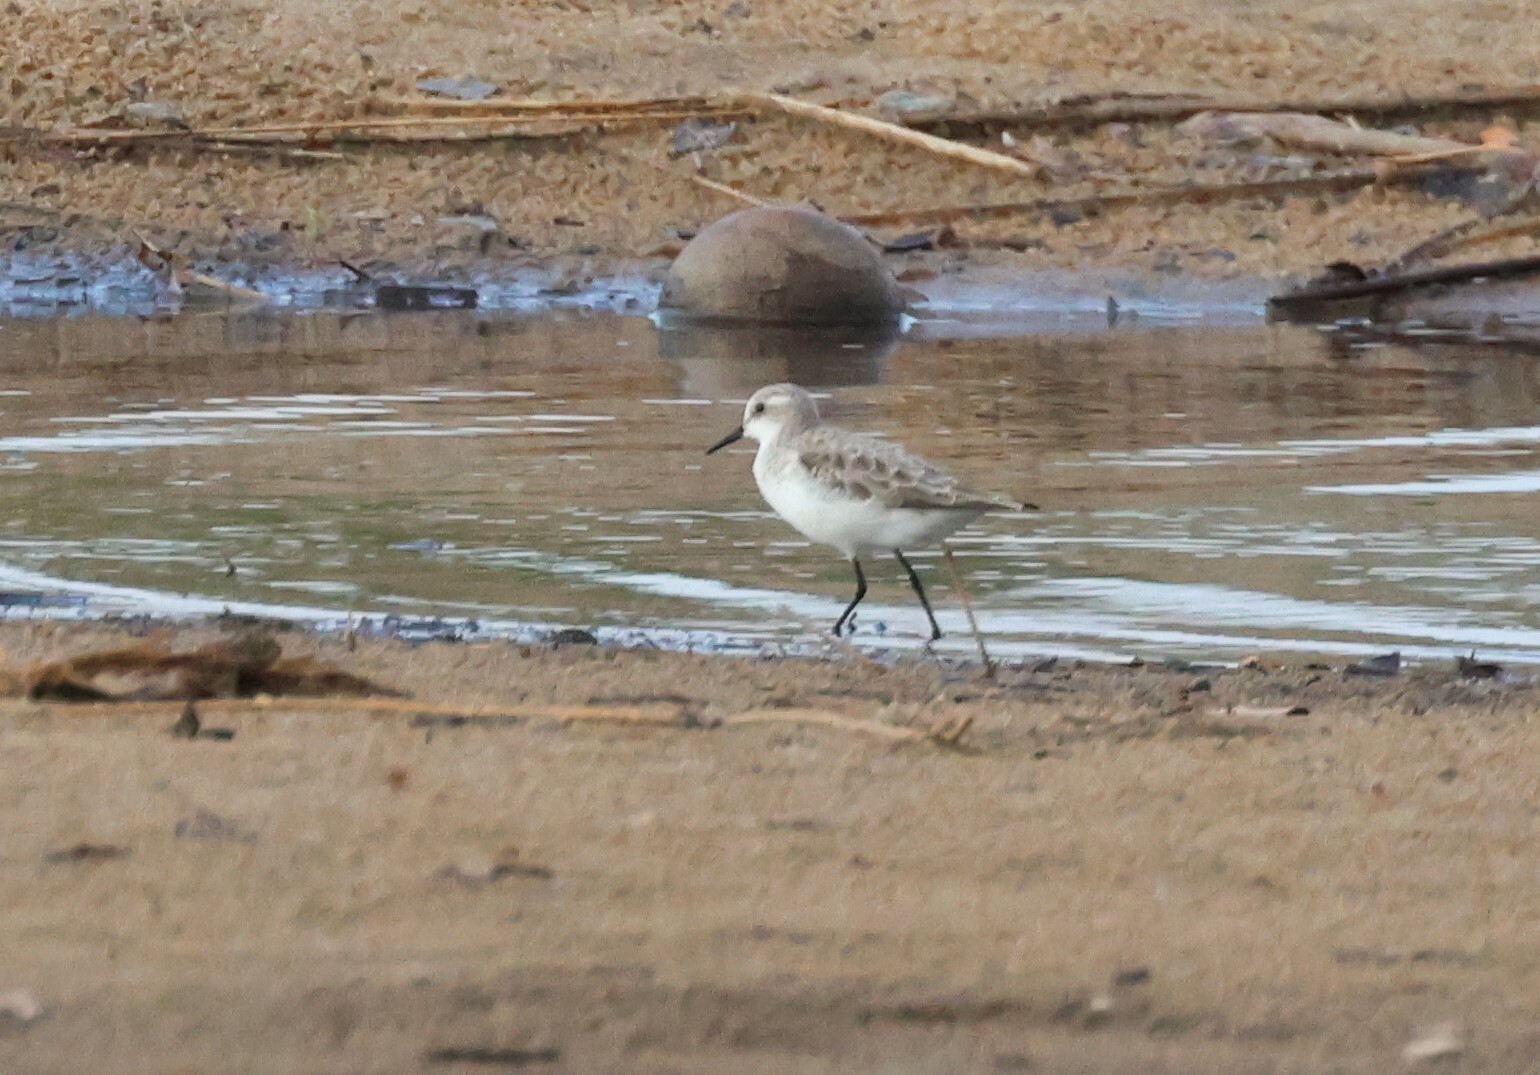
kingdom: Animalia
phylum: Chordata
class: Aves
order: Charadriiformes
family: Scolopacidae
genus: Calidris
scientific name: Calidris minuta
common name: Little stint
